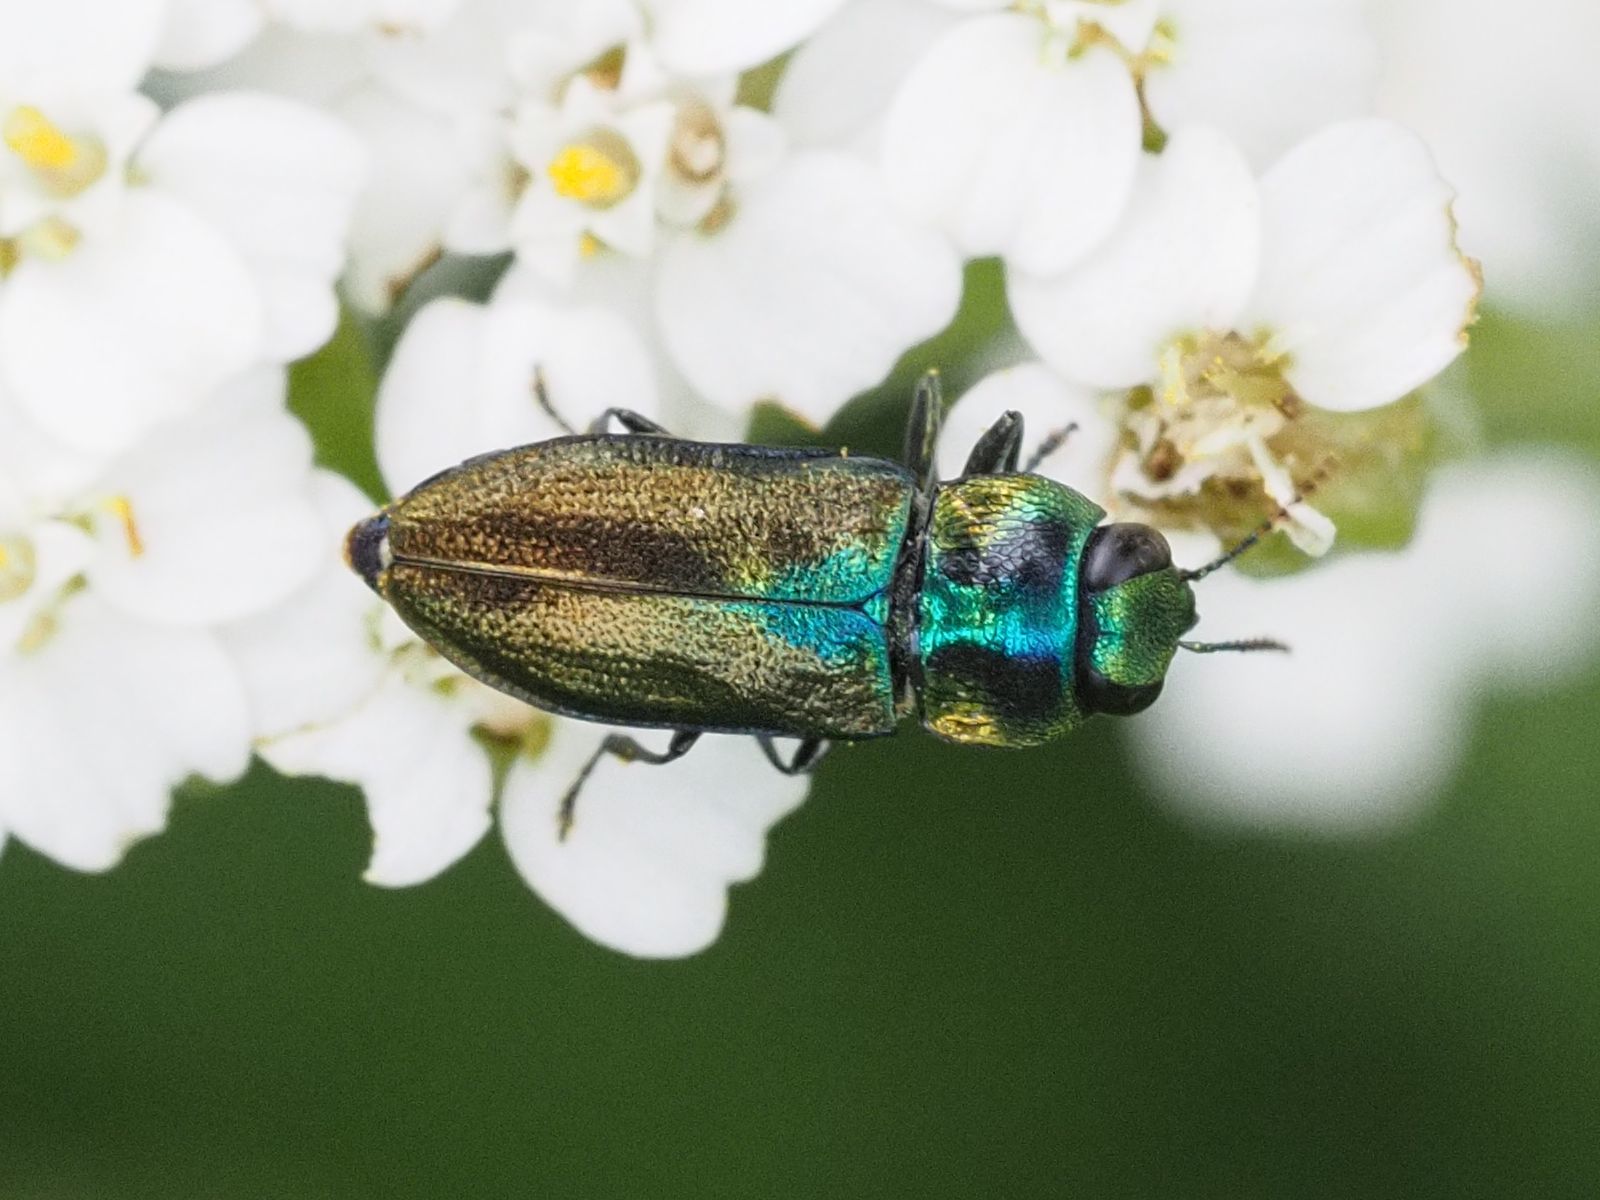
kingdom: Animalia
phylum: Arthropoda
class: Insecta
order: Coleoptera
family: Buprestidae
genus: Anthaxia
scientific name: Anthaxia podolica
